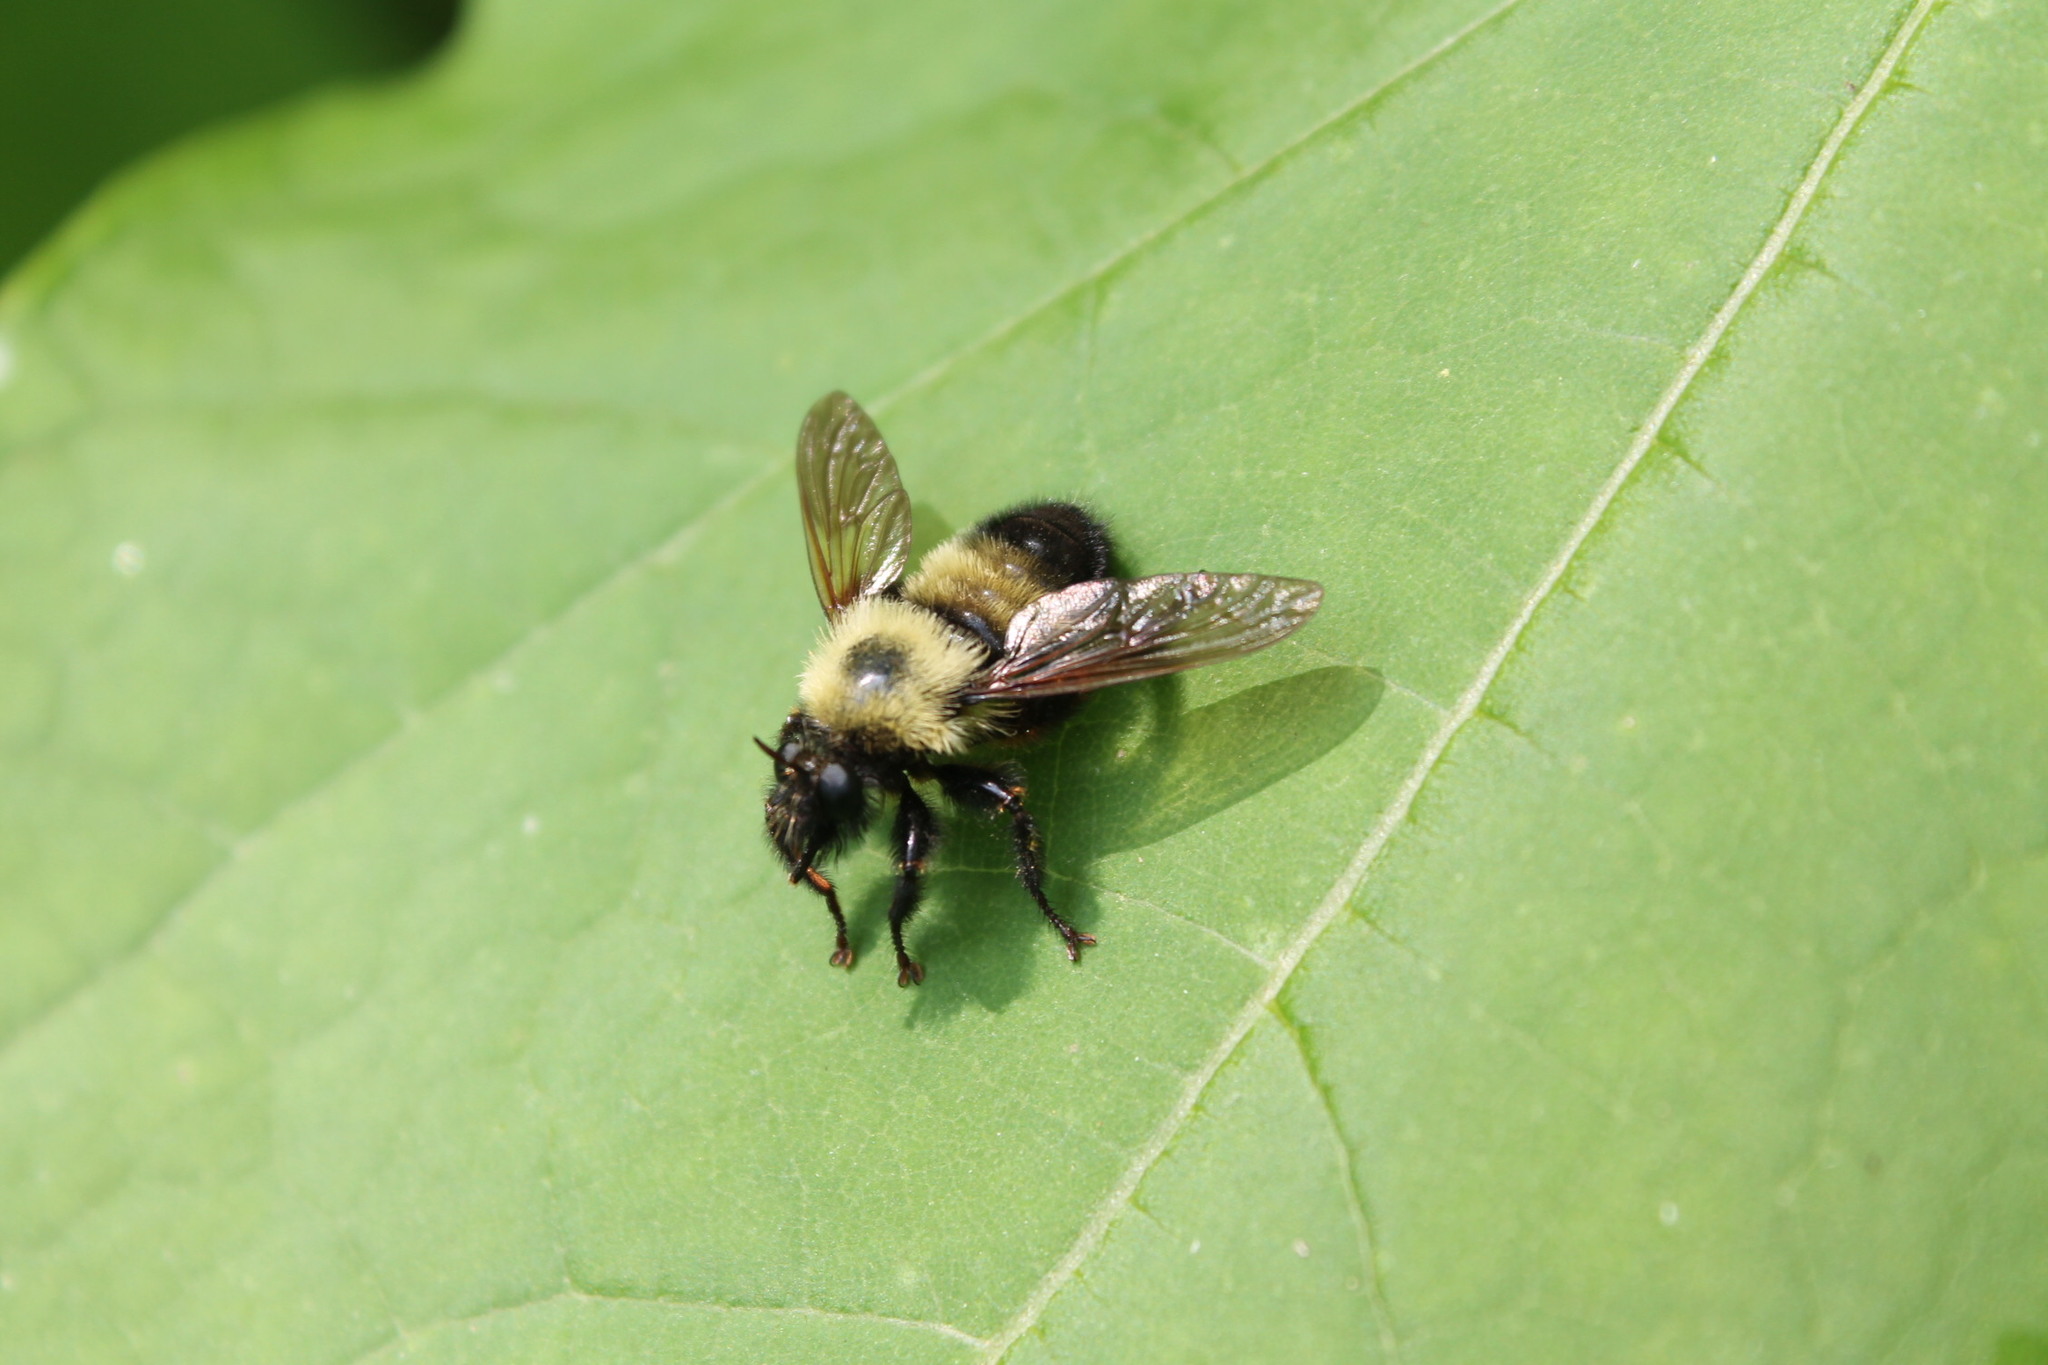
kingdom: Animalia
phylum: Arthropoda
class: Insecta
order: Diptera
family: Asilidae
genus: Laphria
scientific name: Laphria thoracica
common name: Bumble bee mimic robber fly
